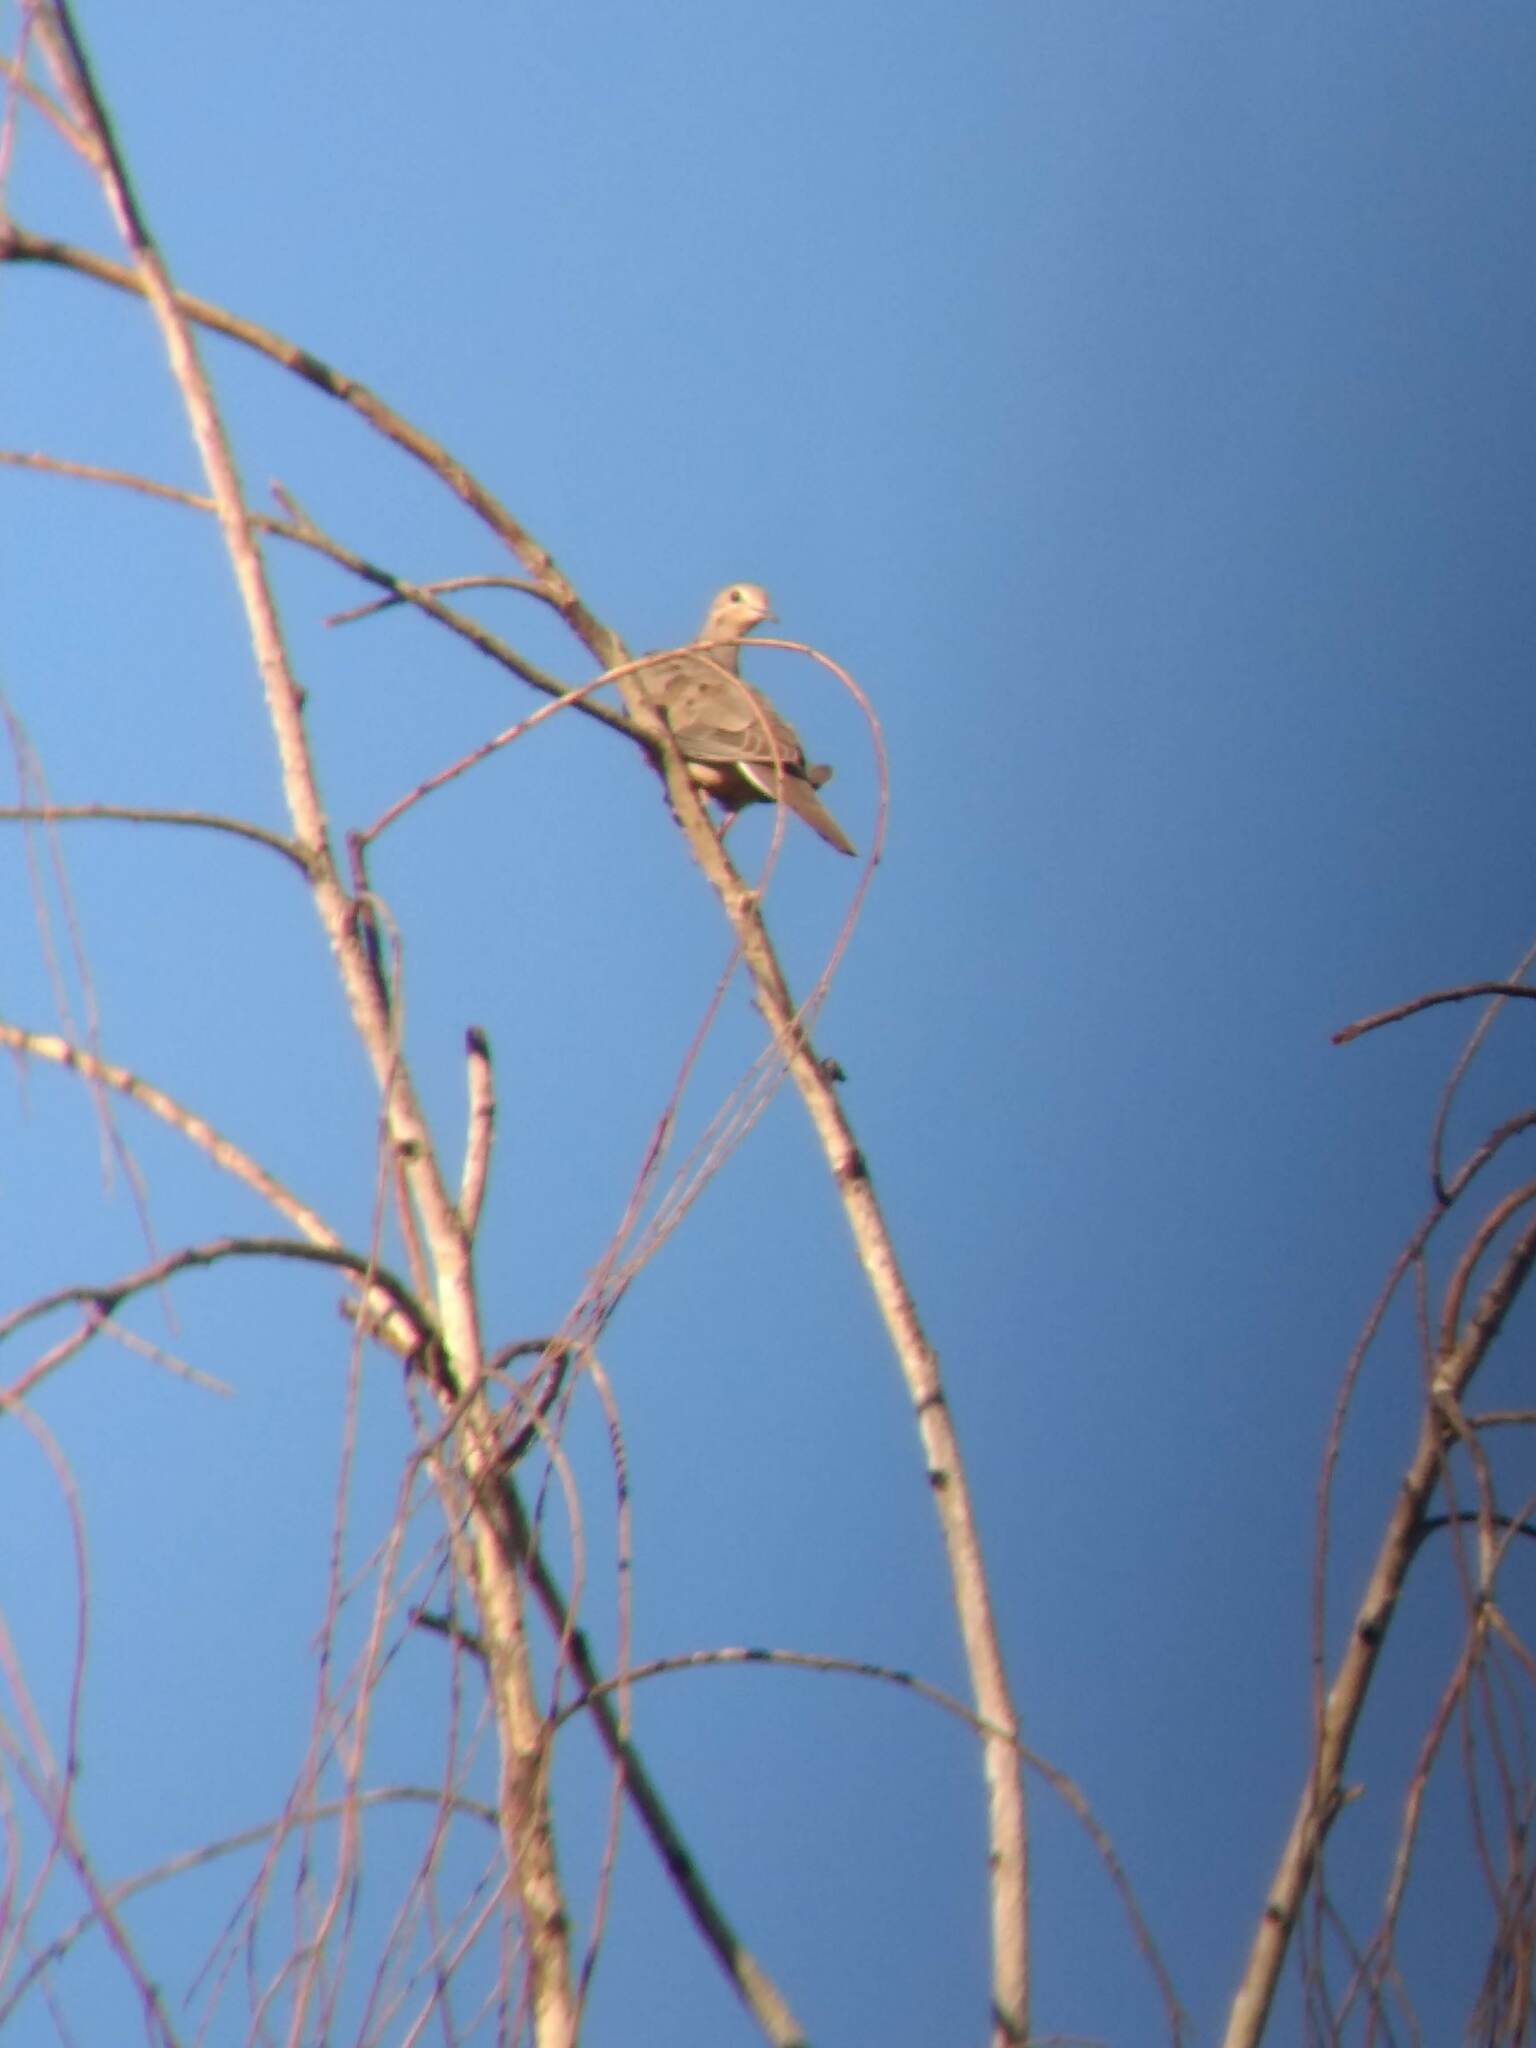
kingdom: Animalia
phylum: Chordata
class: Aves
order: Columbiformes
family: Columbidae
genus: Zenaida
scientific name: Zenaida macroura
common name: Mourning dove
